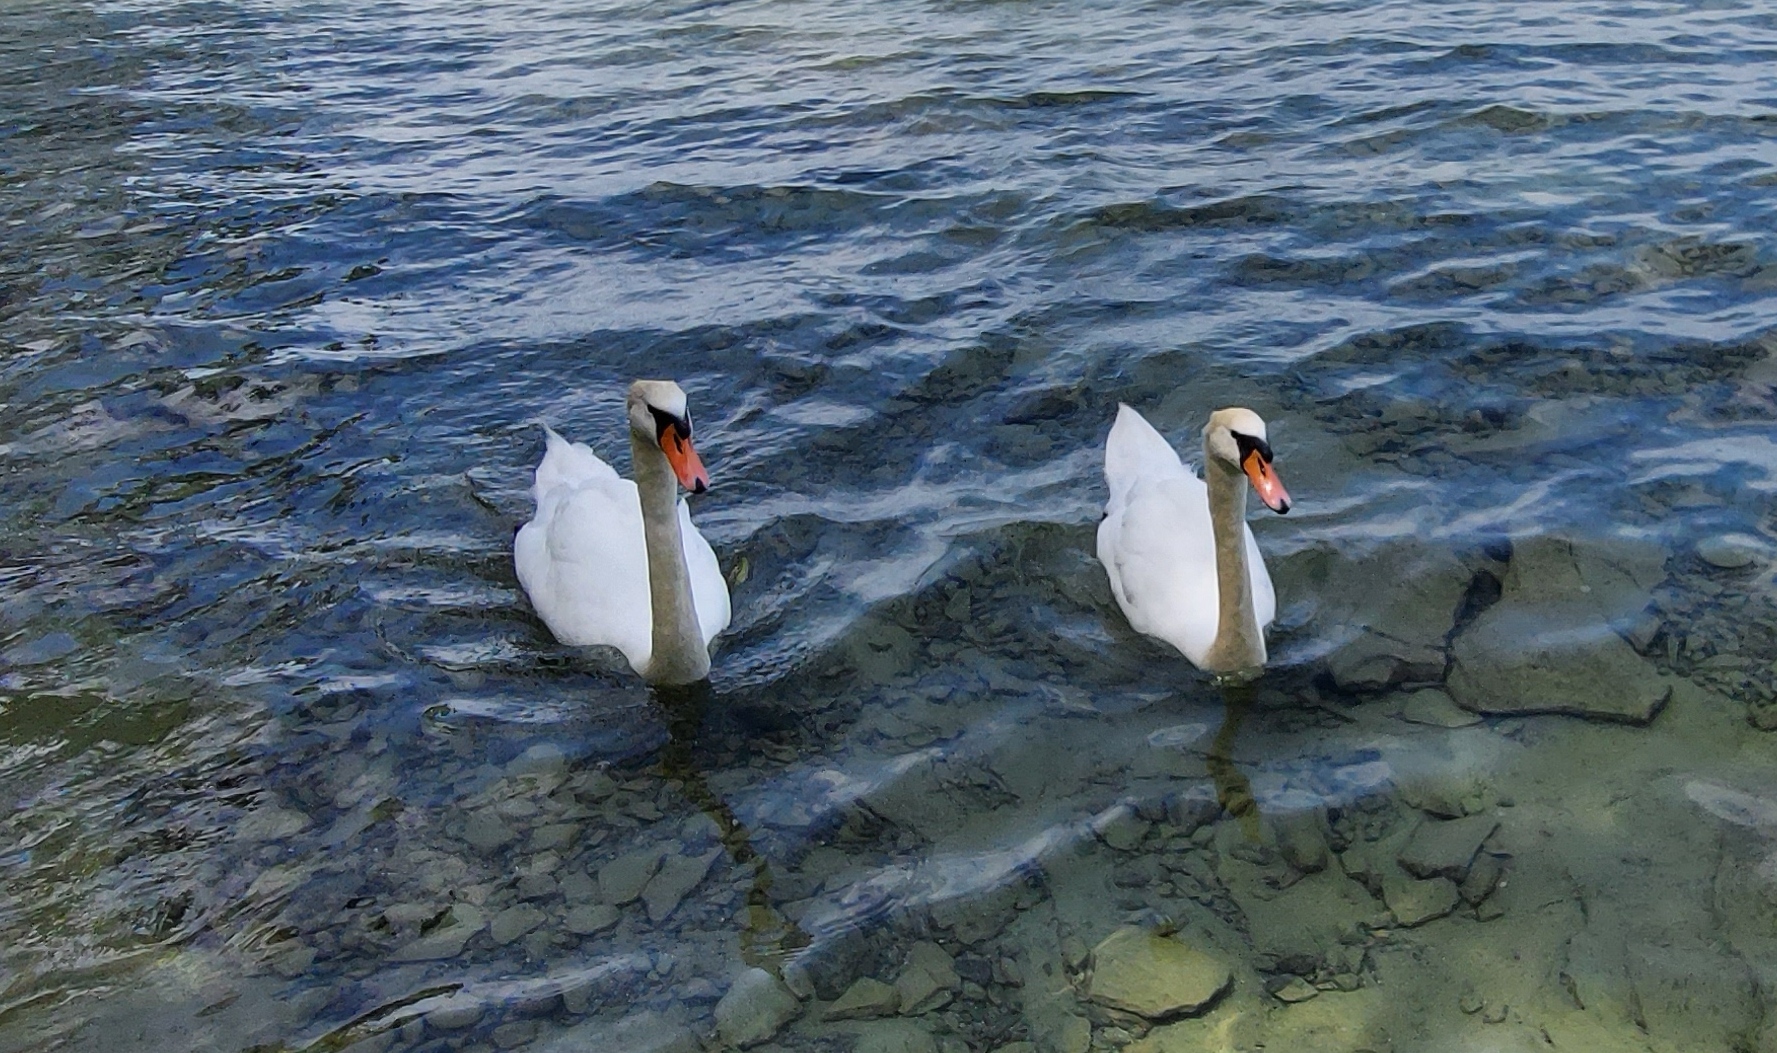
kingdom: Animalia
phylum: Chordata
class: Aves
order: Anseriformes
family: Anatidae
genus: Cygnus
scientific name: Cygnus olor
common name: Mute swan
